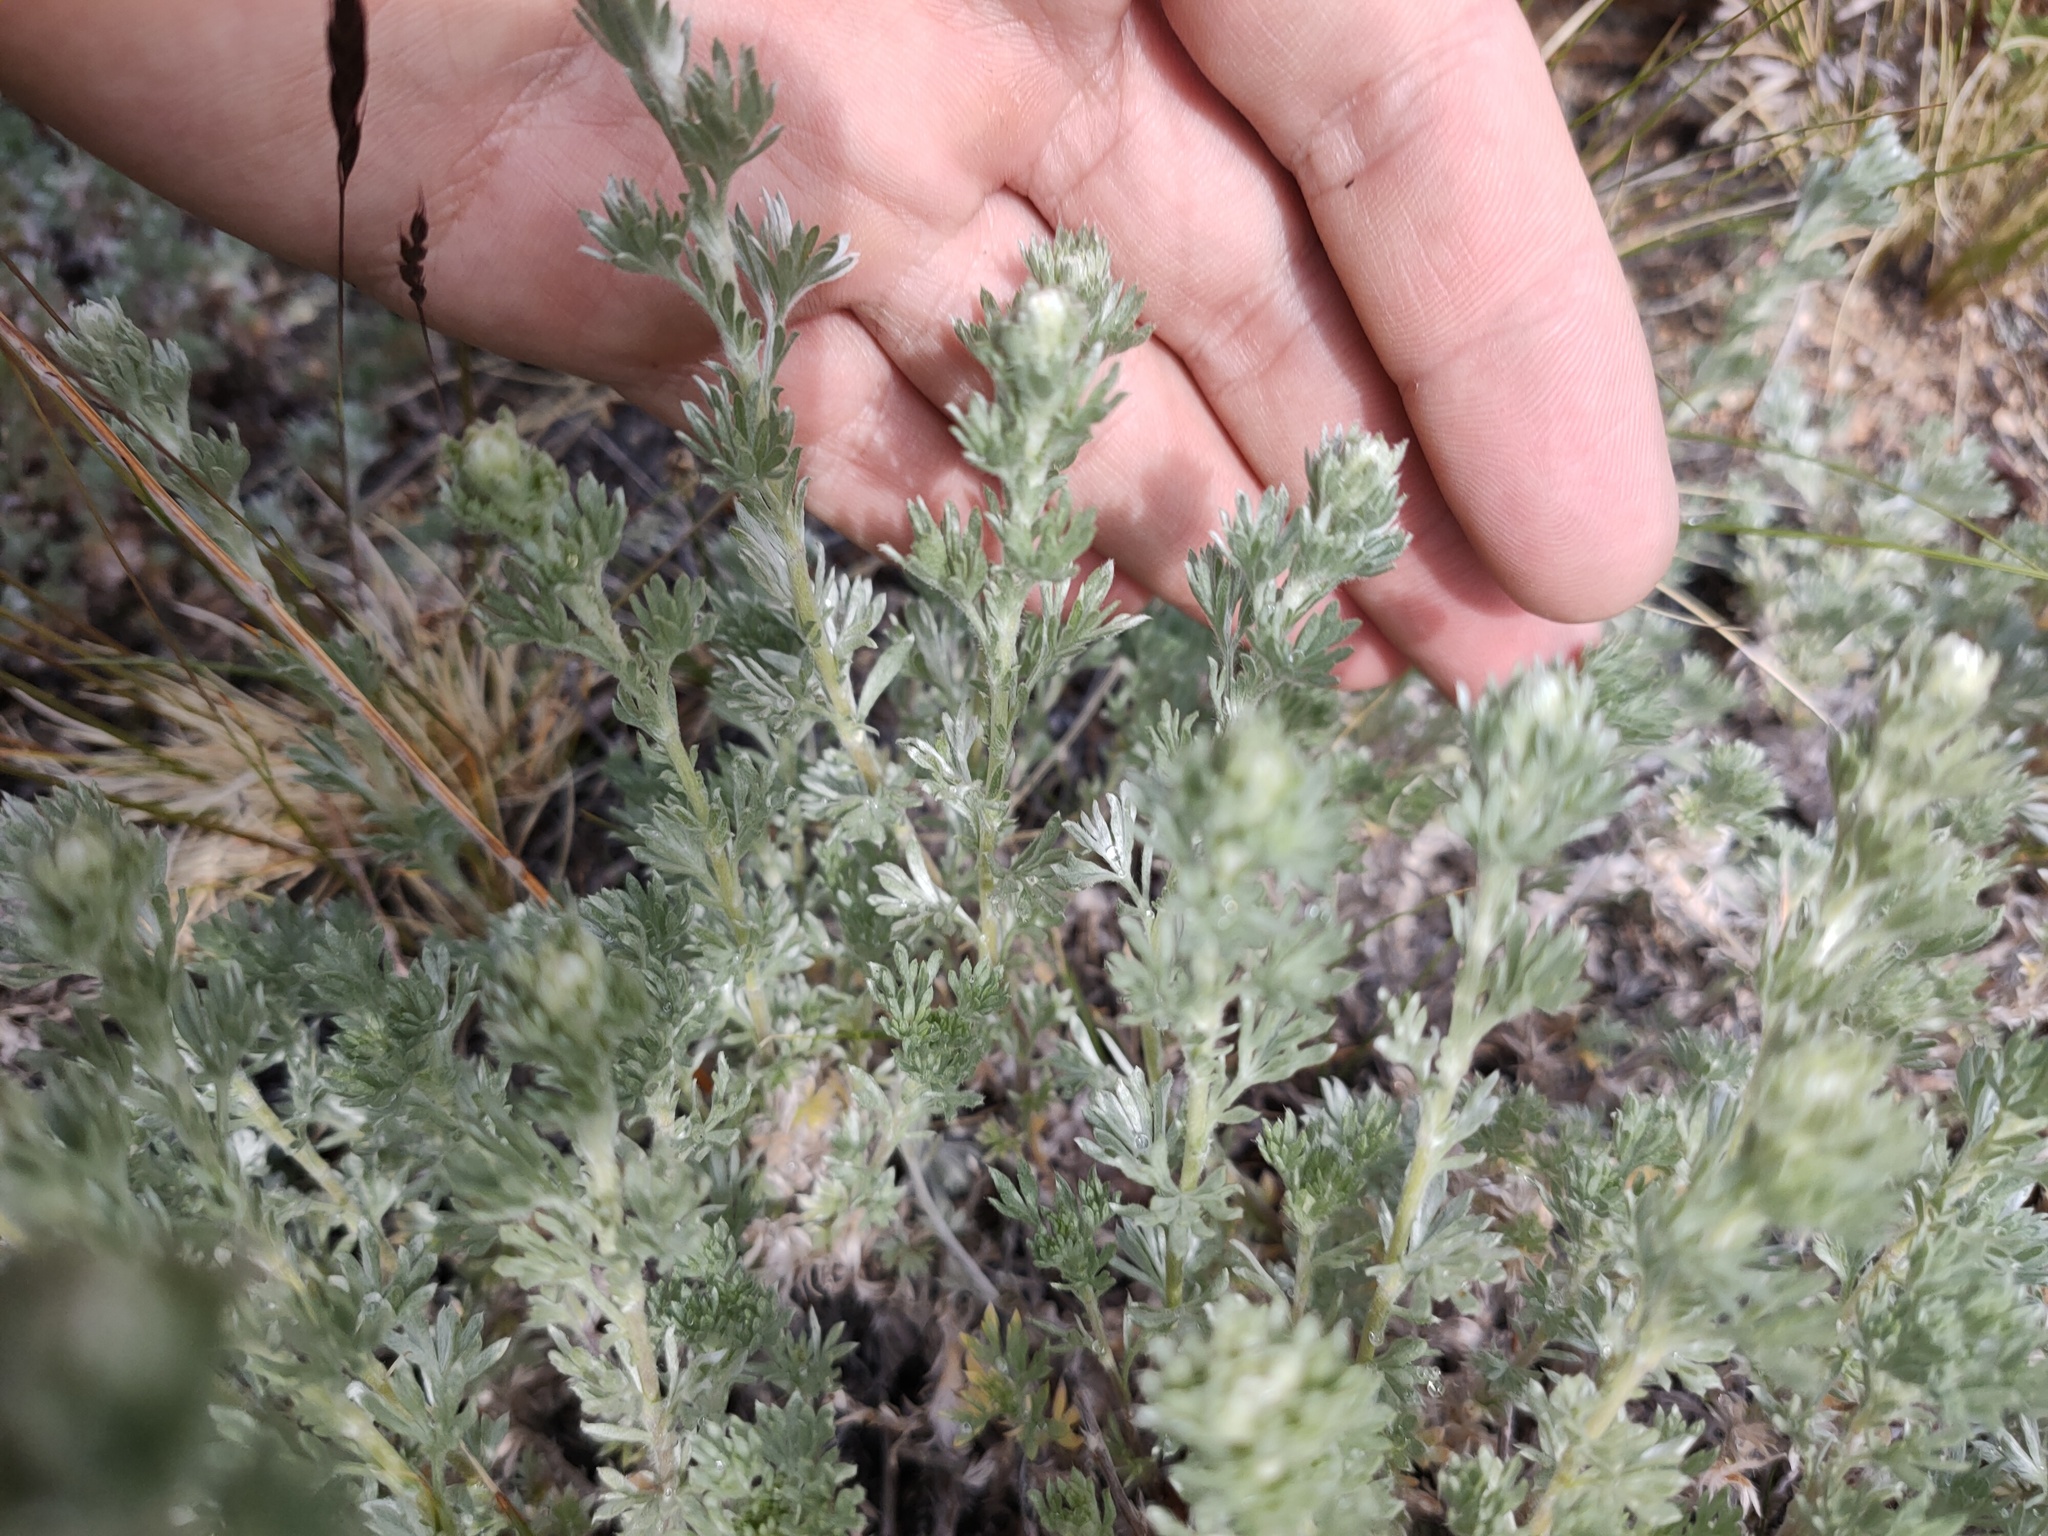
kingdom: Plantae
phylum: Tracheophyta
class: Magnoliopsida
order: Asterales
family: Asteraceae
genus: Artemisia
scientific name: Artemisia frigida
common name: Prairie sagewort
